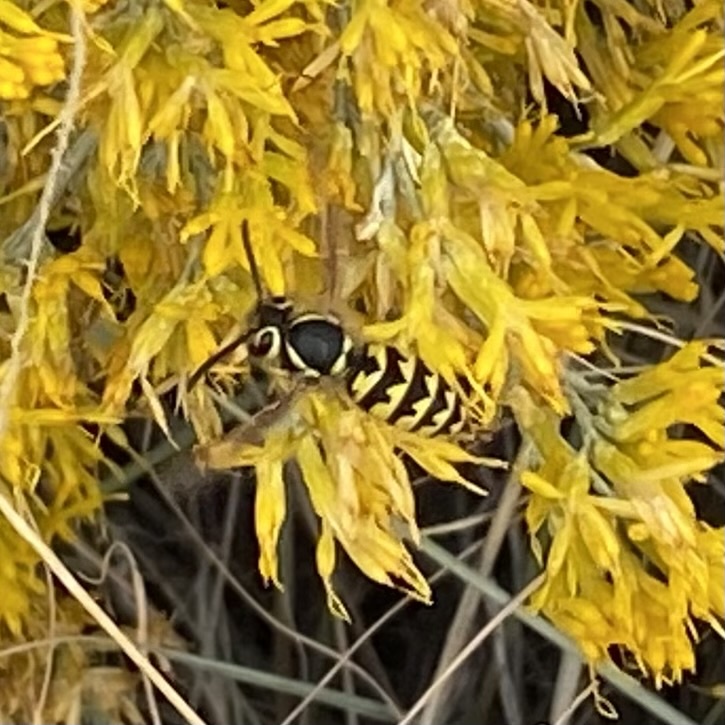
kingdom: Animalia
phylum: Arthropoda
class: Insecta
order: Hymenoptera
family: Vespidae
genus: Vespula
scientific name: Vespula pensylvanica
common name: Western yellowjacket
